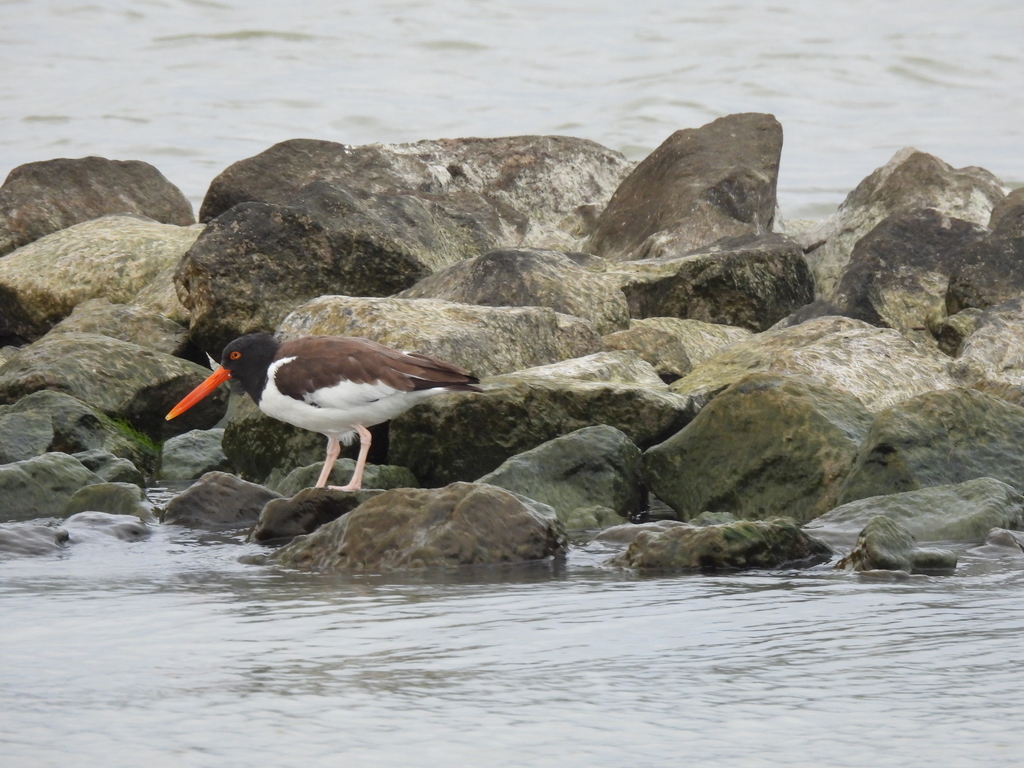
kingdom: Animalia
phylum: Chordata
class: Aves
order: Charadriiformes
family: Haematopodidae
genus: Haematopus
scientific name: Haematopus palliatus
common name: American oystercatcher
